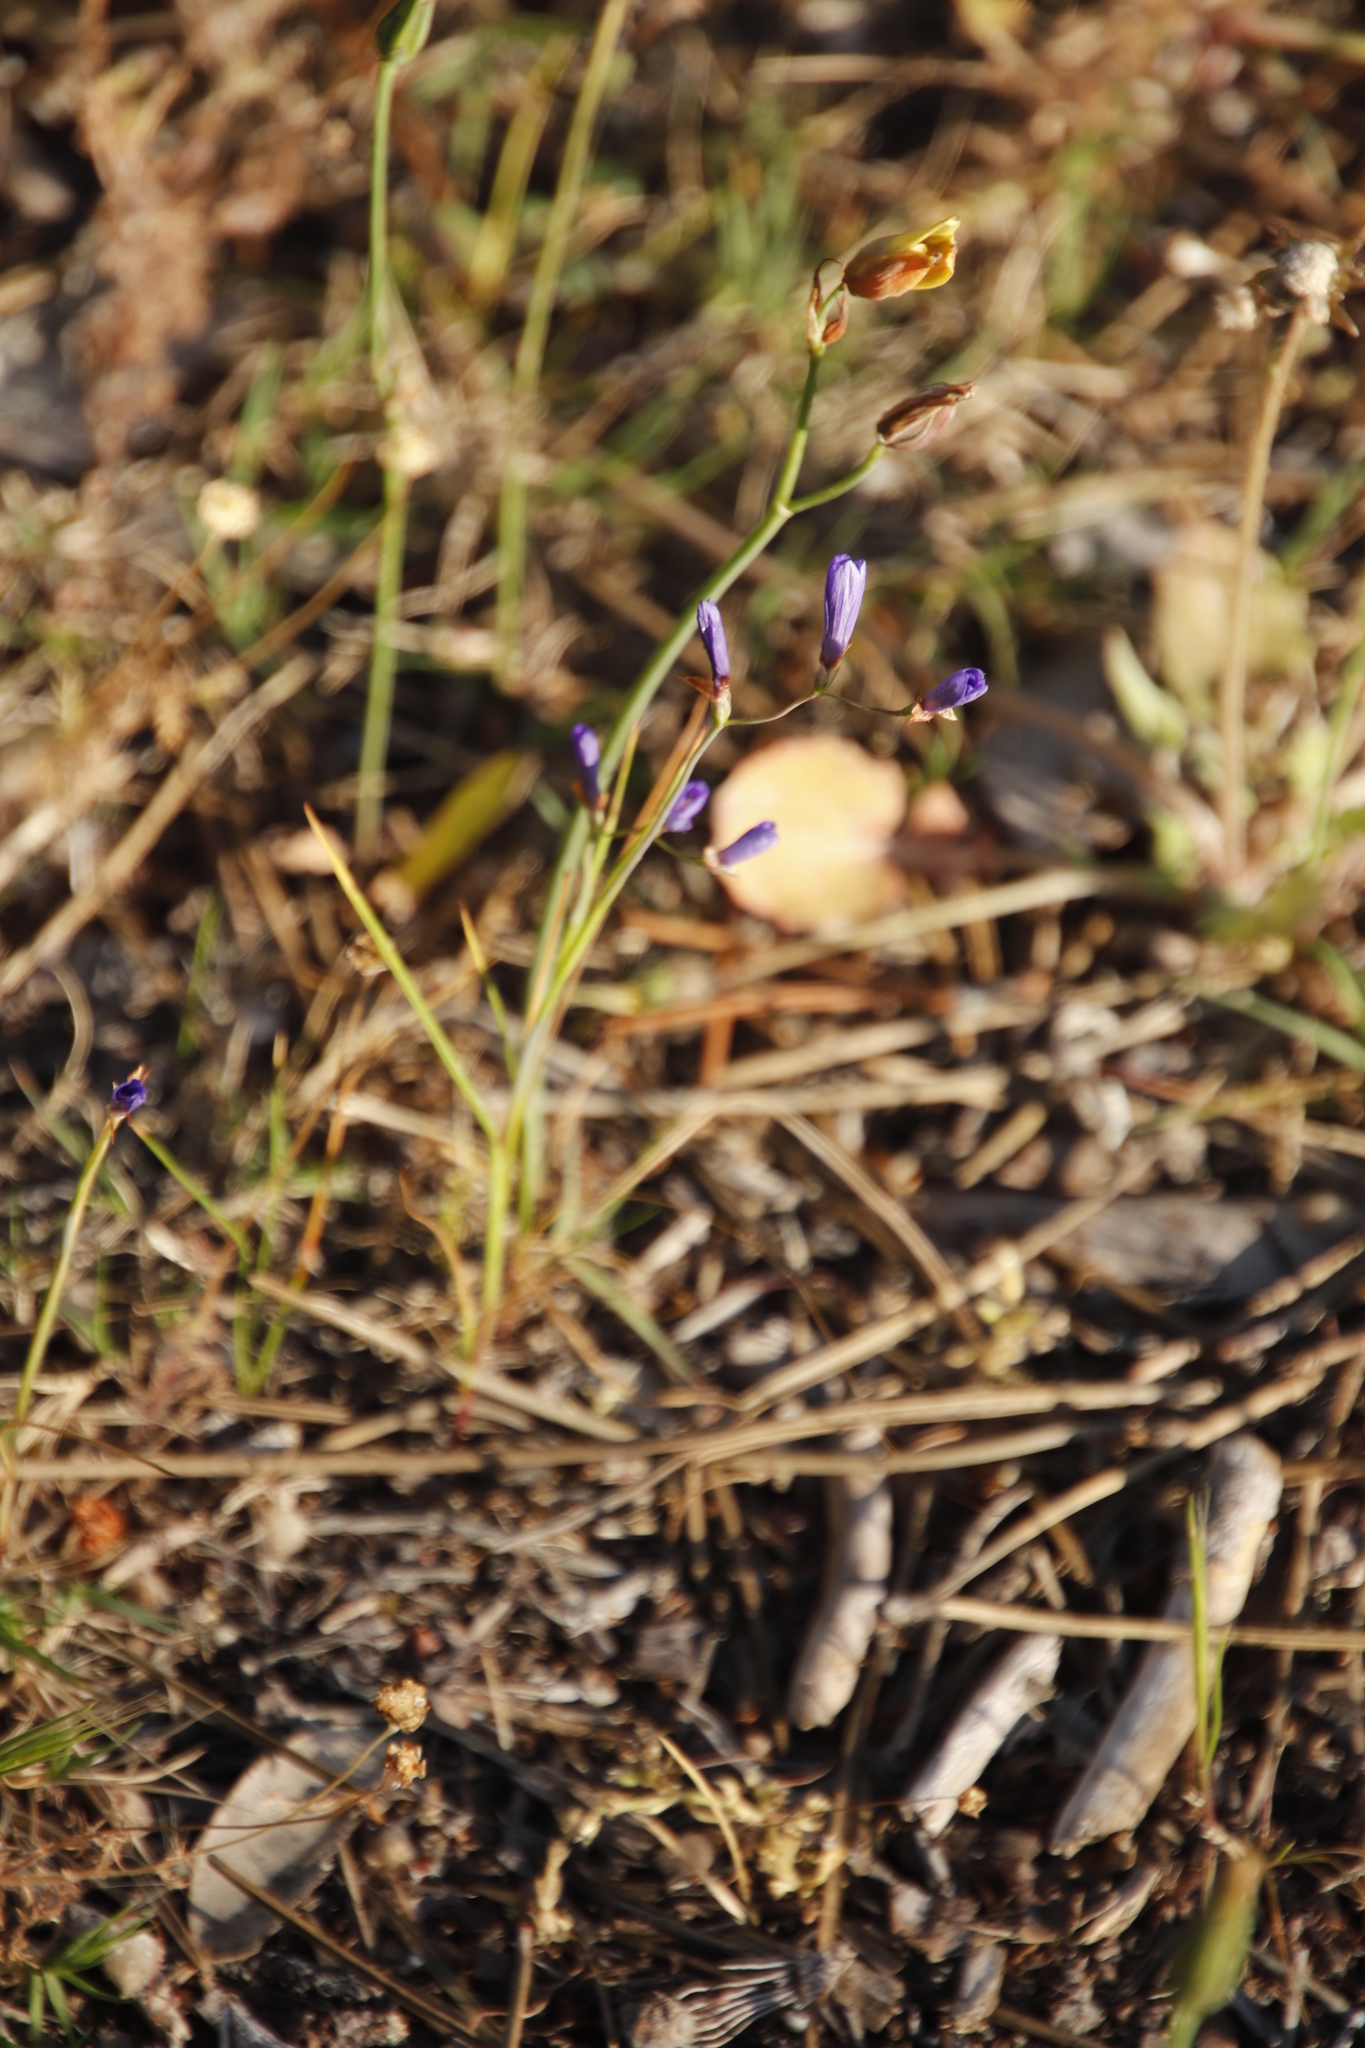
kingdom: Plantae
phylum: Tracheophyta
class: Liliopsida
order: Asparagales
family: Iridaceae
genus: Geissorhiza
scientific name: Geissorhiza aspera
